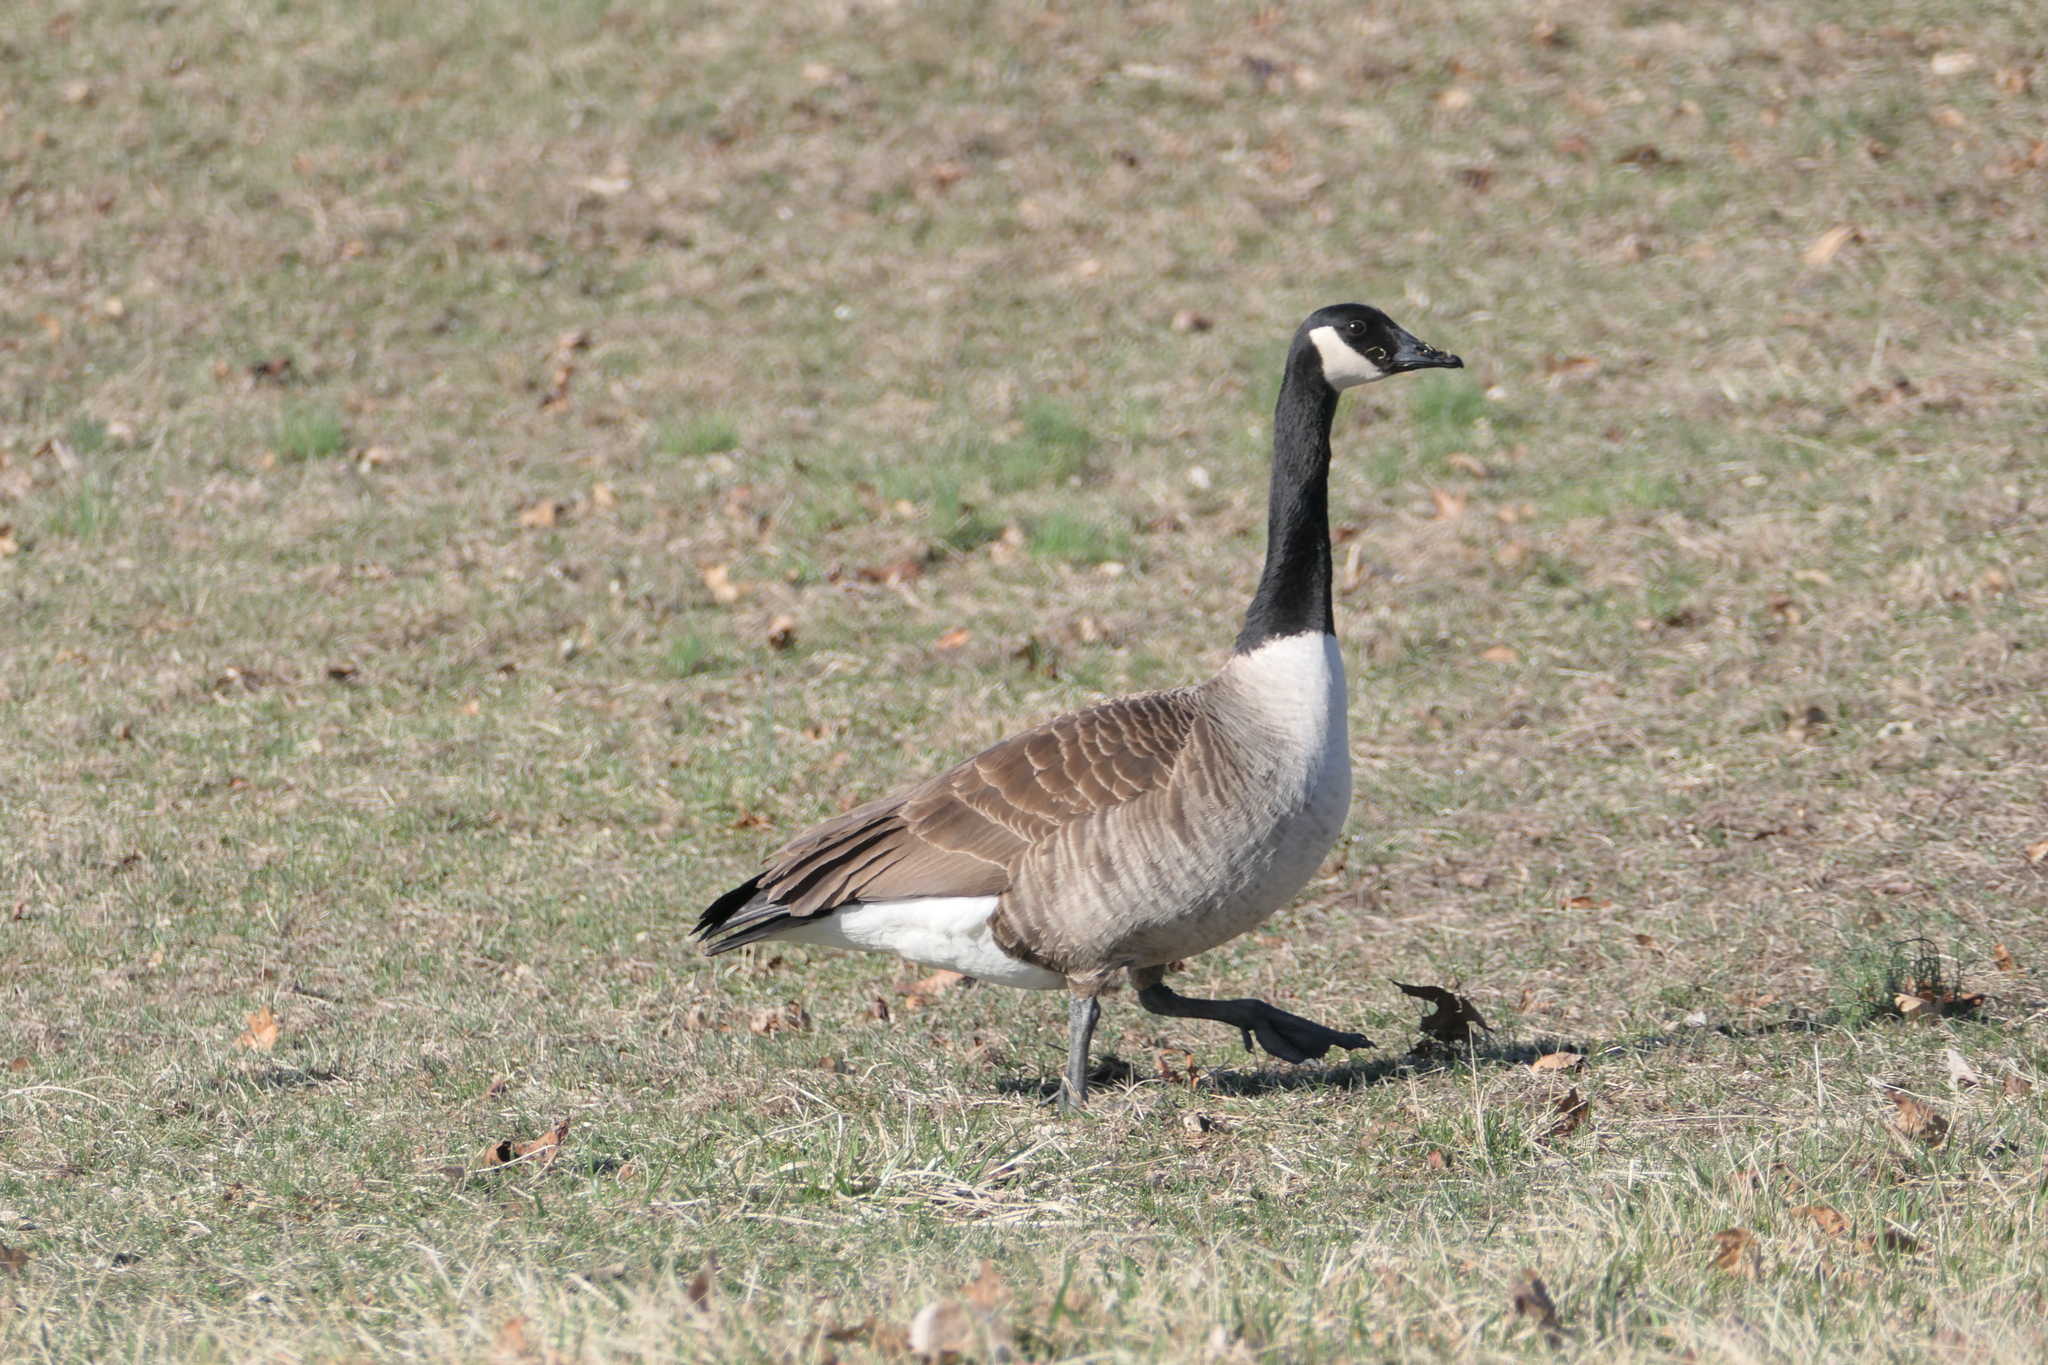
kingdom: Animalia
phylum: Chordata
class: Aves
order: Anseriformes
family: Anatidae
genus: Branta
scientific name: Branta canadensis
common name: Canada goose
